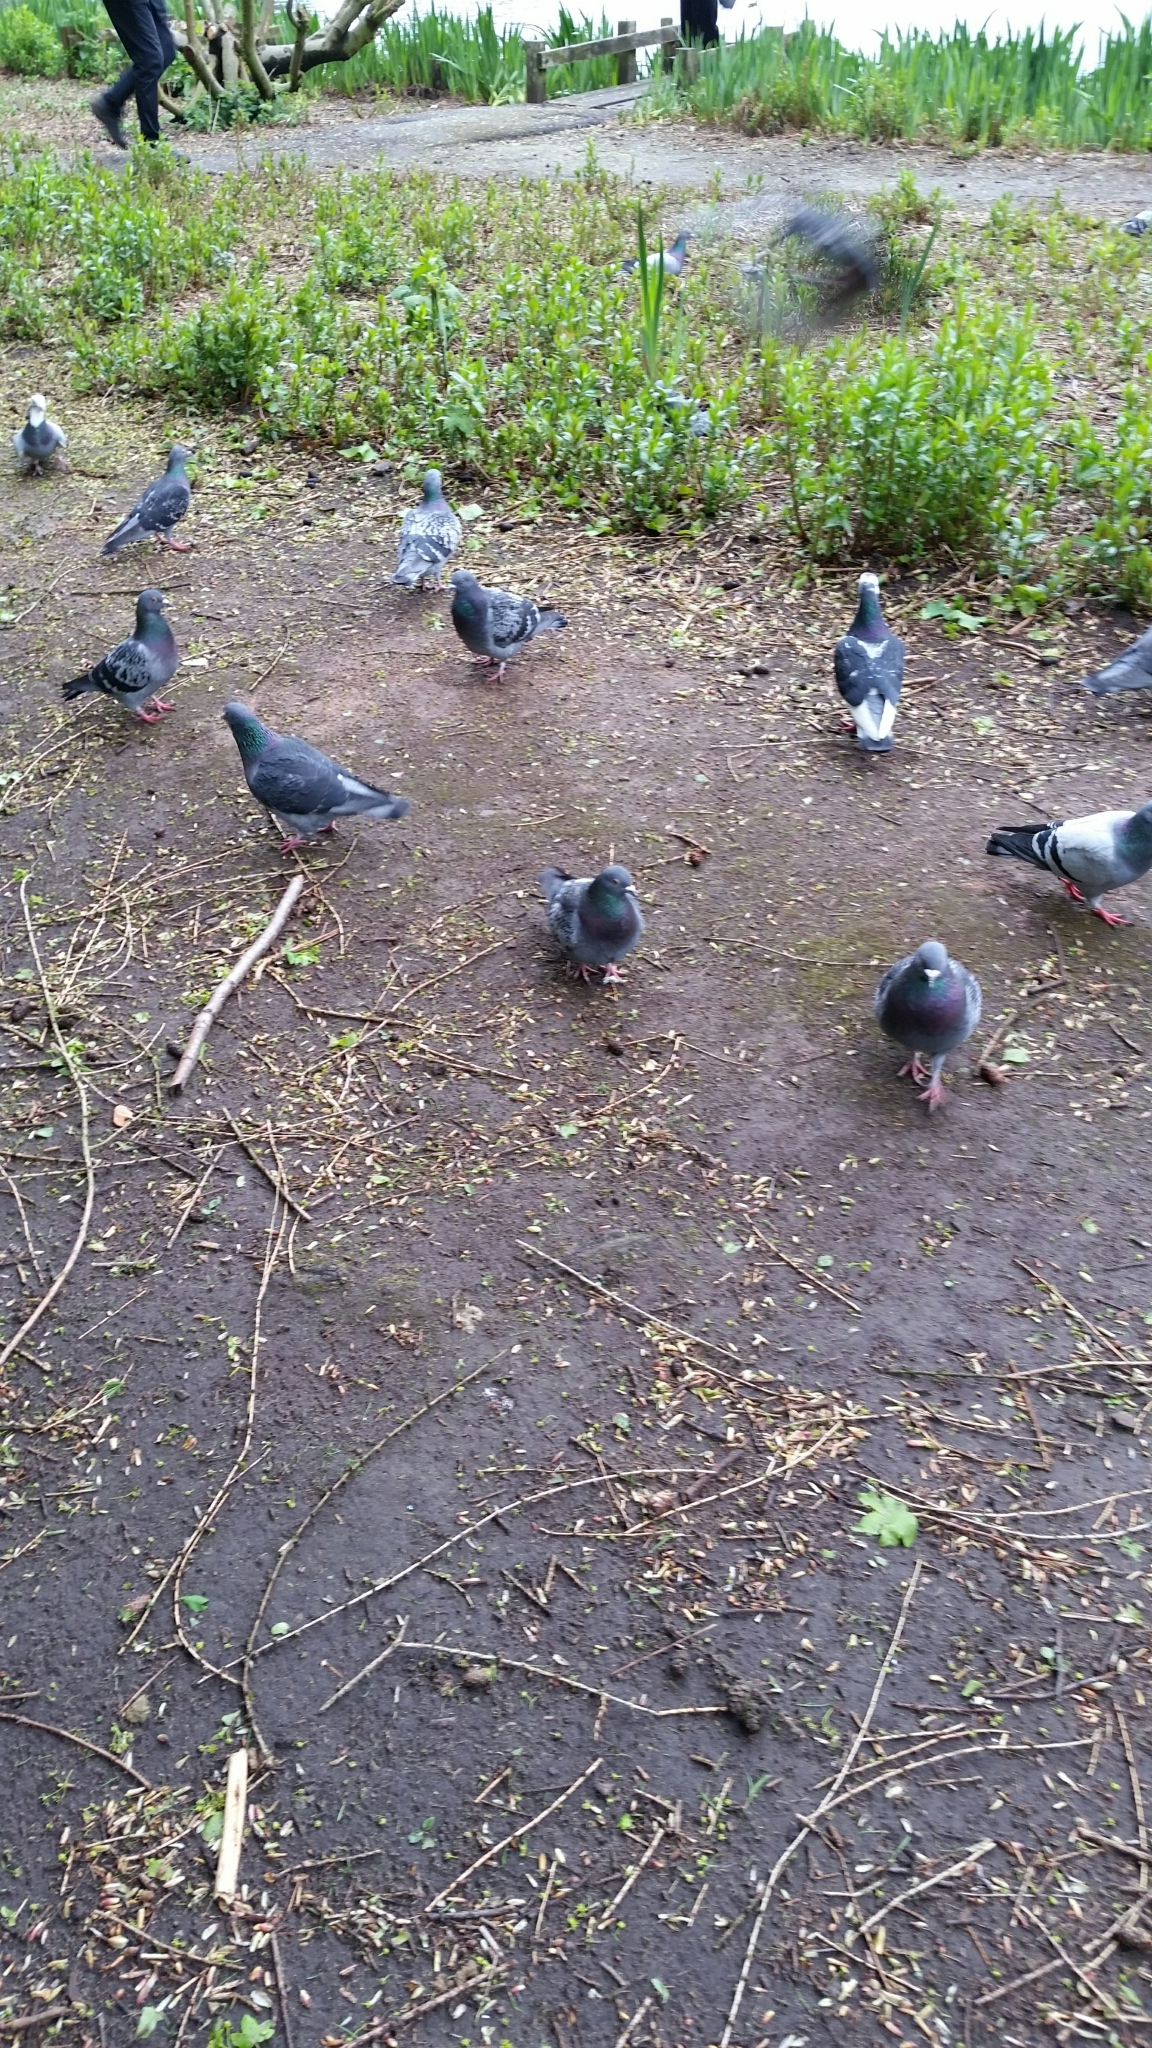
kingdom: Animalia
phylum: Chordata
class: Aves
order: Columbiformes
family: Columbidae
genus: Columba
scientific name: Columba livia
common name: Rock pigeon
